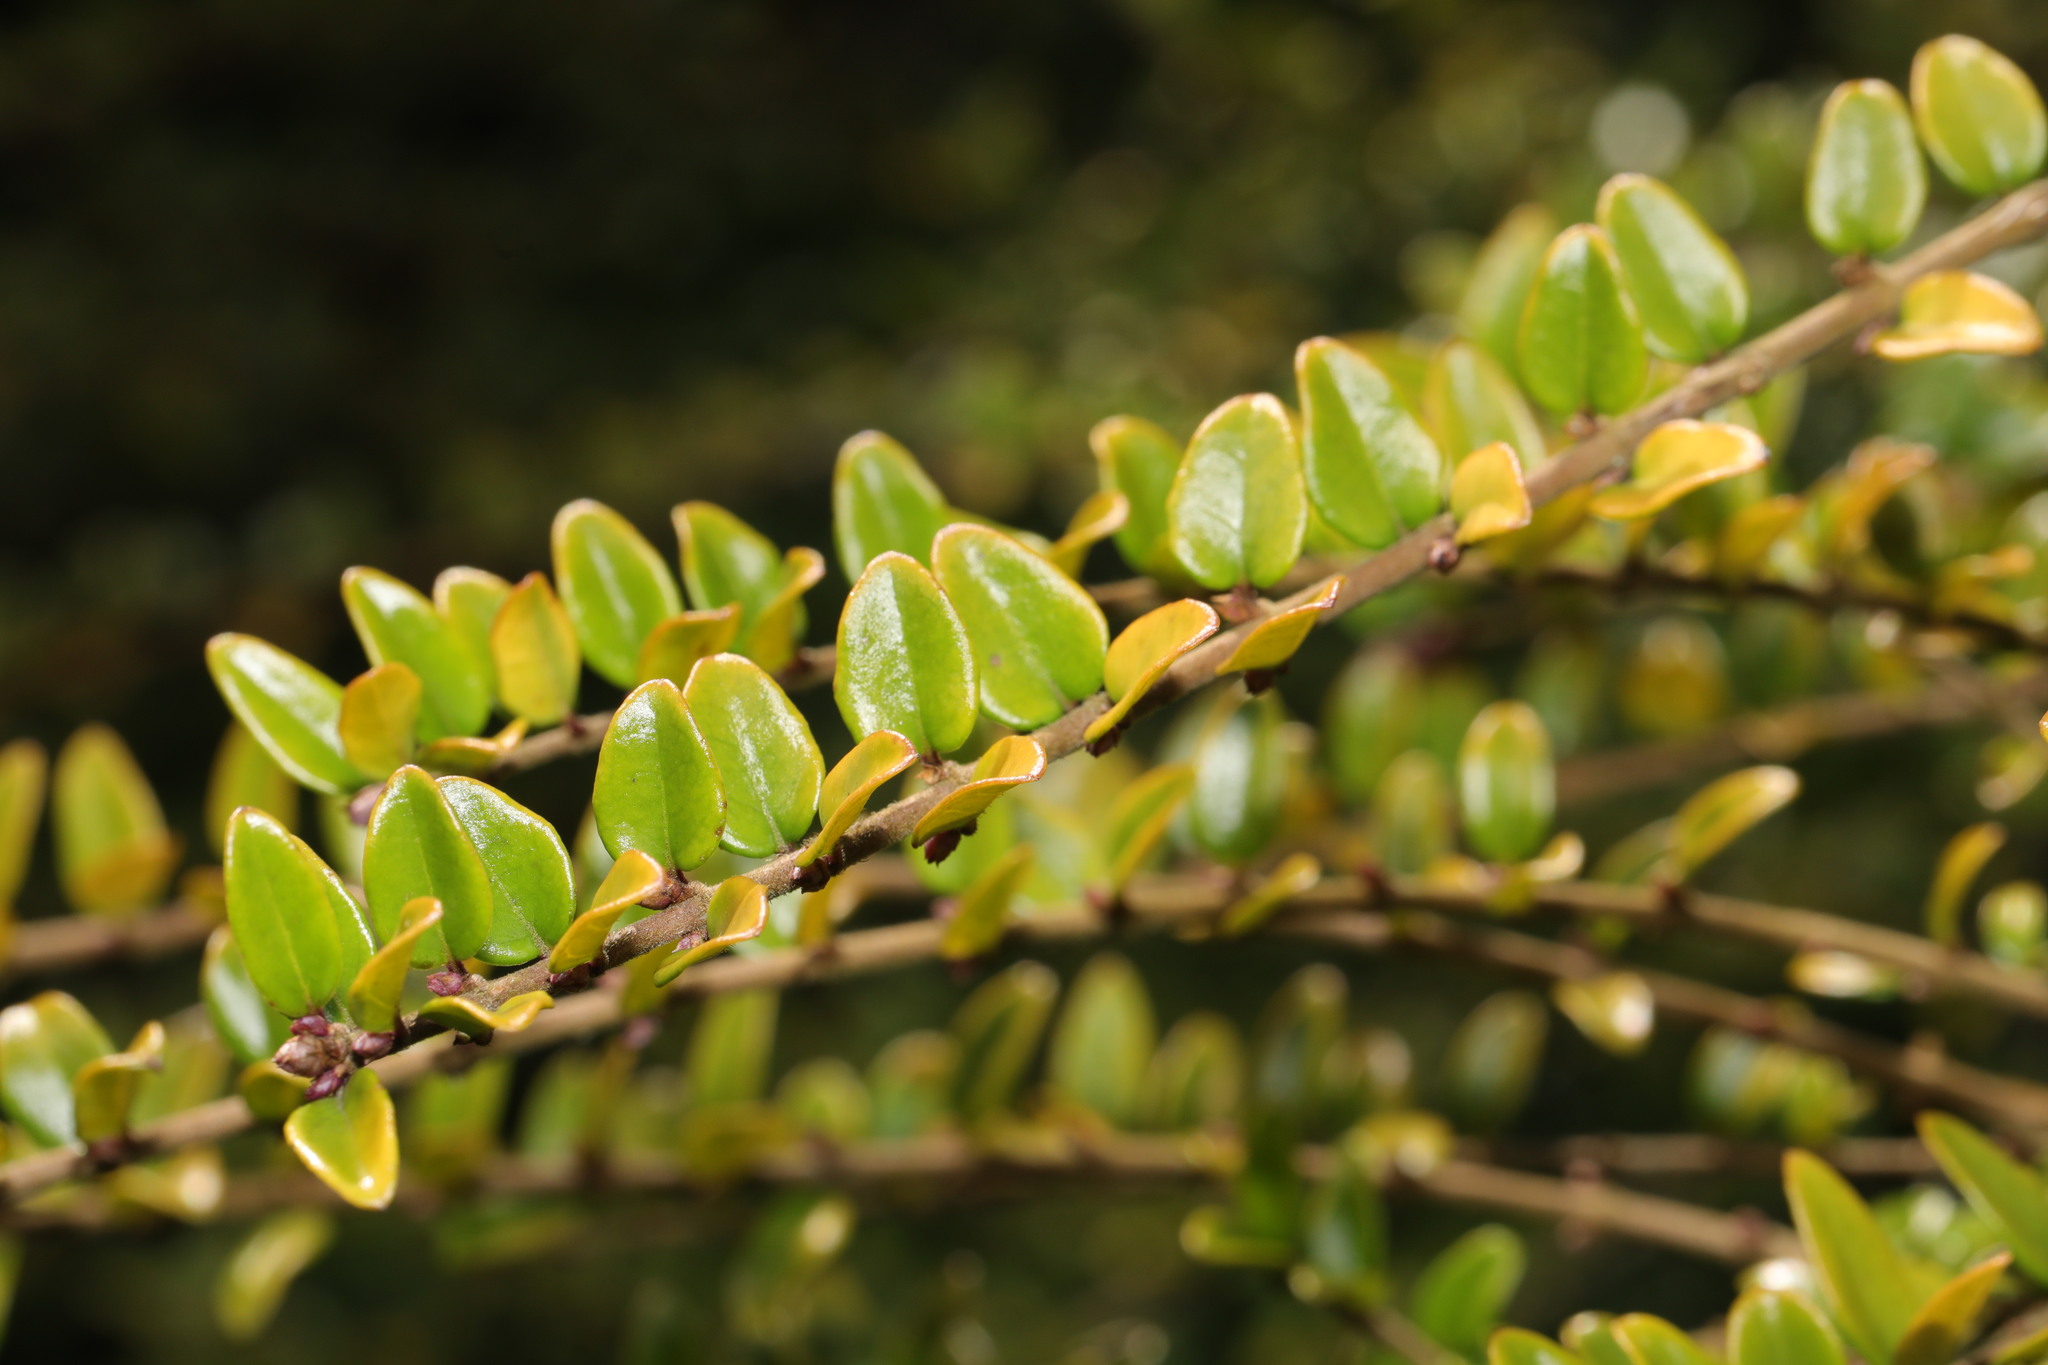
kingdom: Plantae
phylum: Tracheophyta
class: Magnoliopsida
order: Dipsacales
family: Caprifoliaceae
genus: Lonicera
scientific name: Lonicera ligustrina
